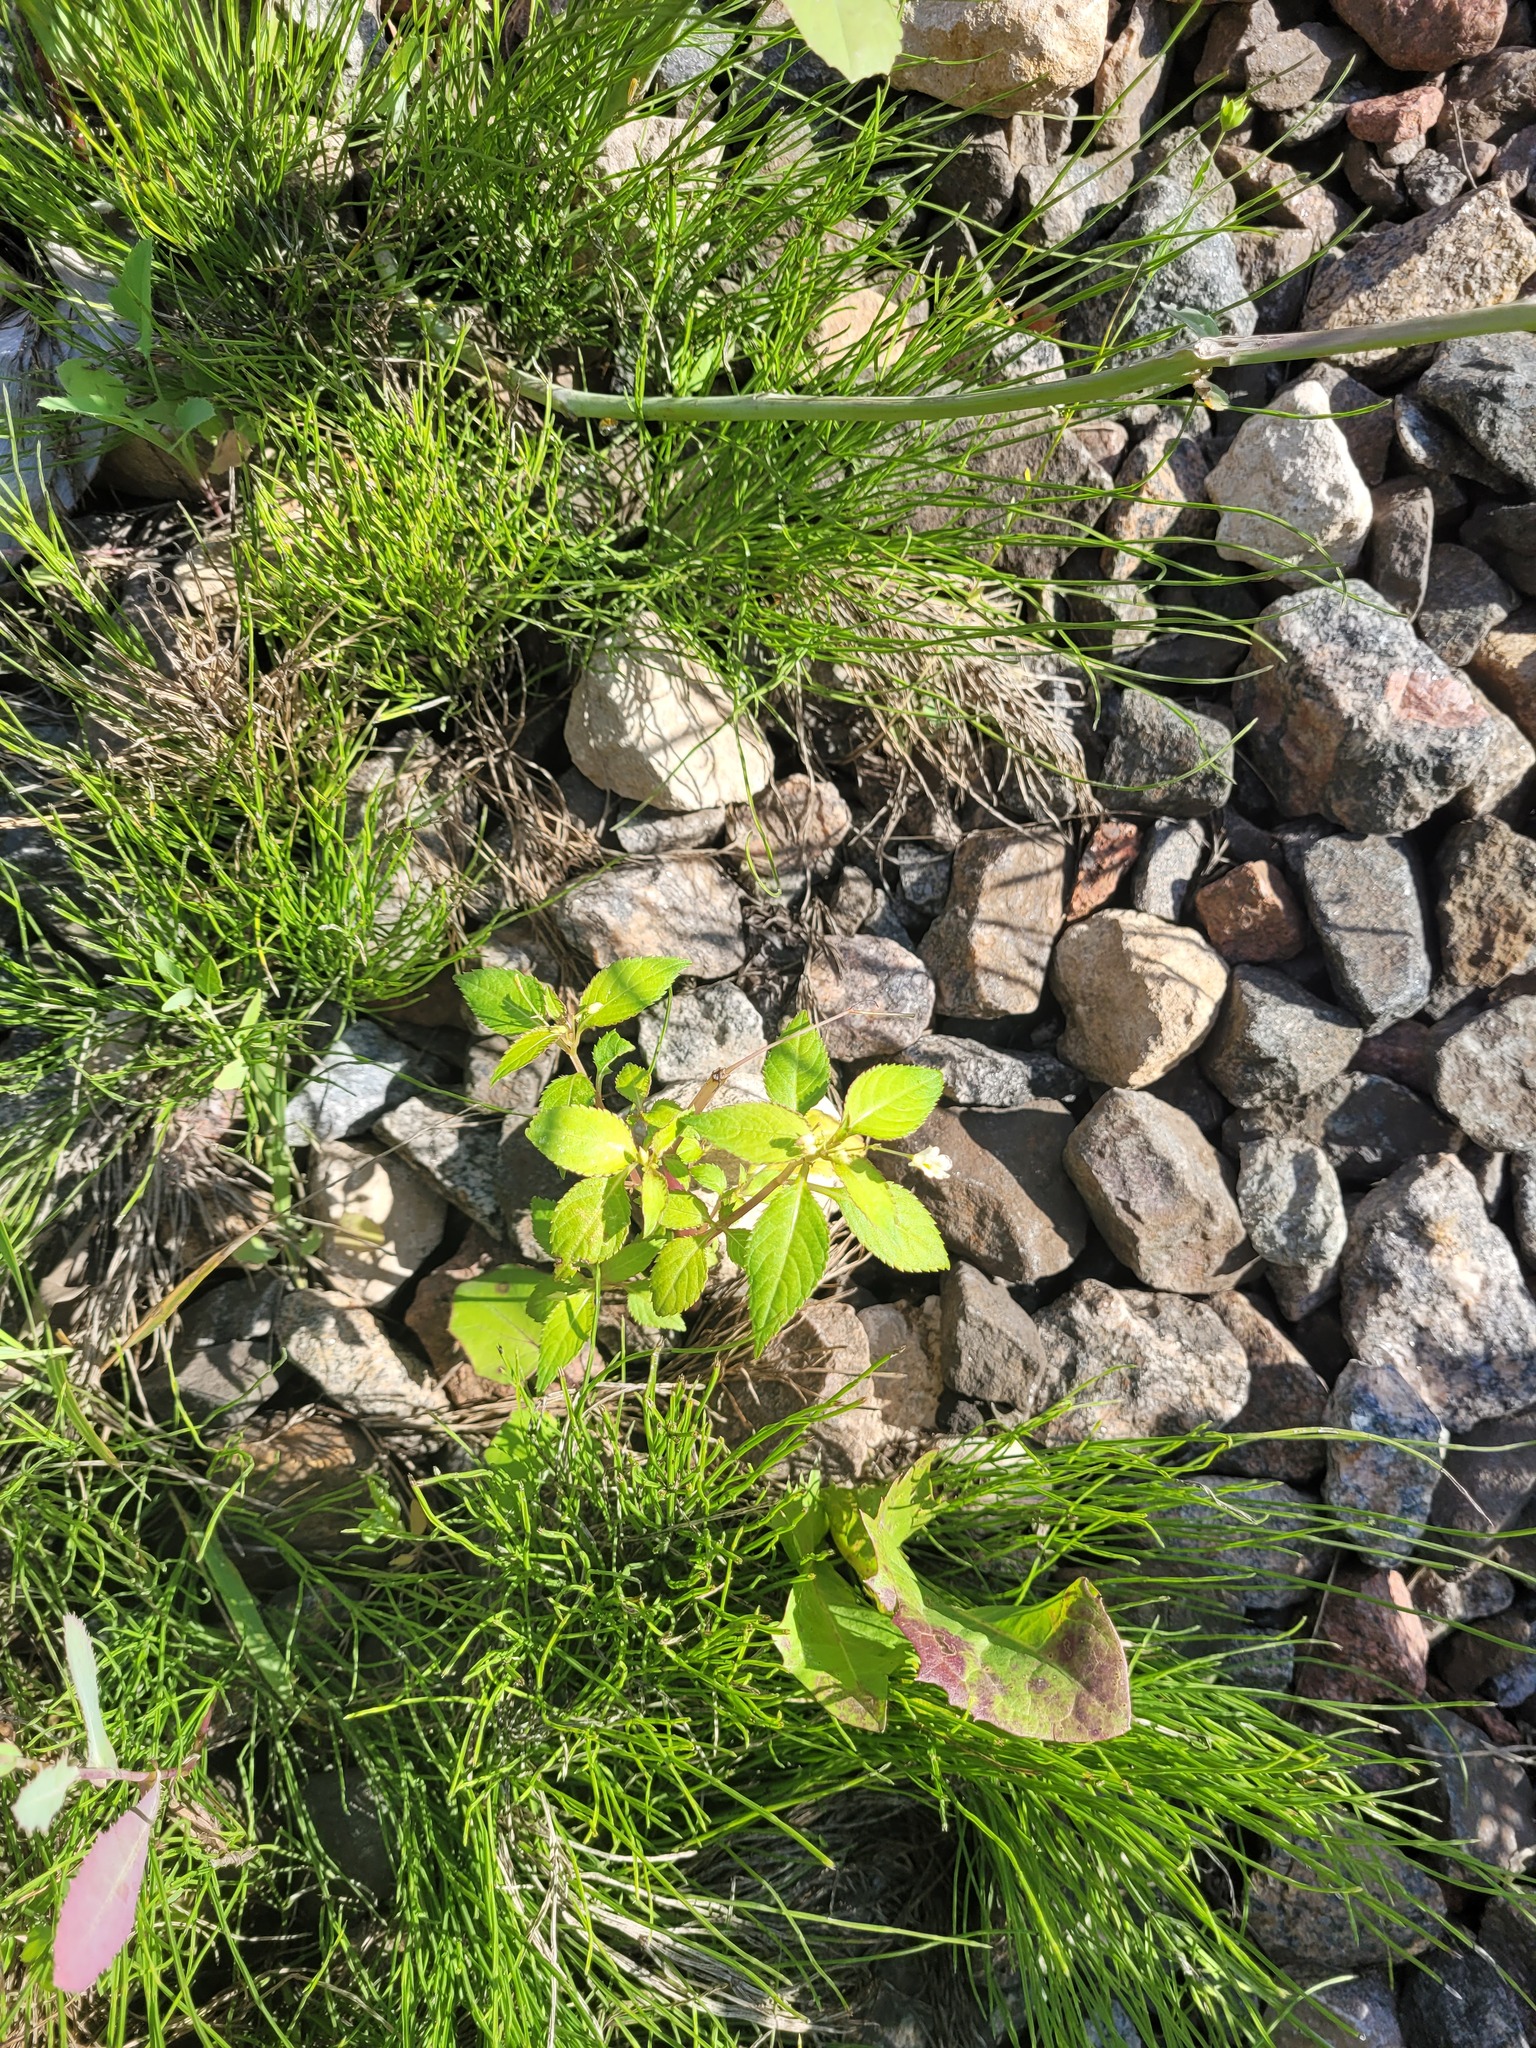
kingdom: Plantae
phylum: Tracheophyta
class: Magnoliopsida
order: Ericales
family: Balsaminaceae
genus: Impatiens
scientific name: Impatiens parviflora
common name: Small balsam
